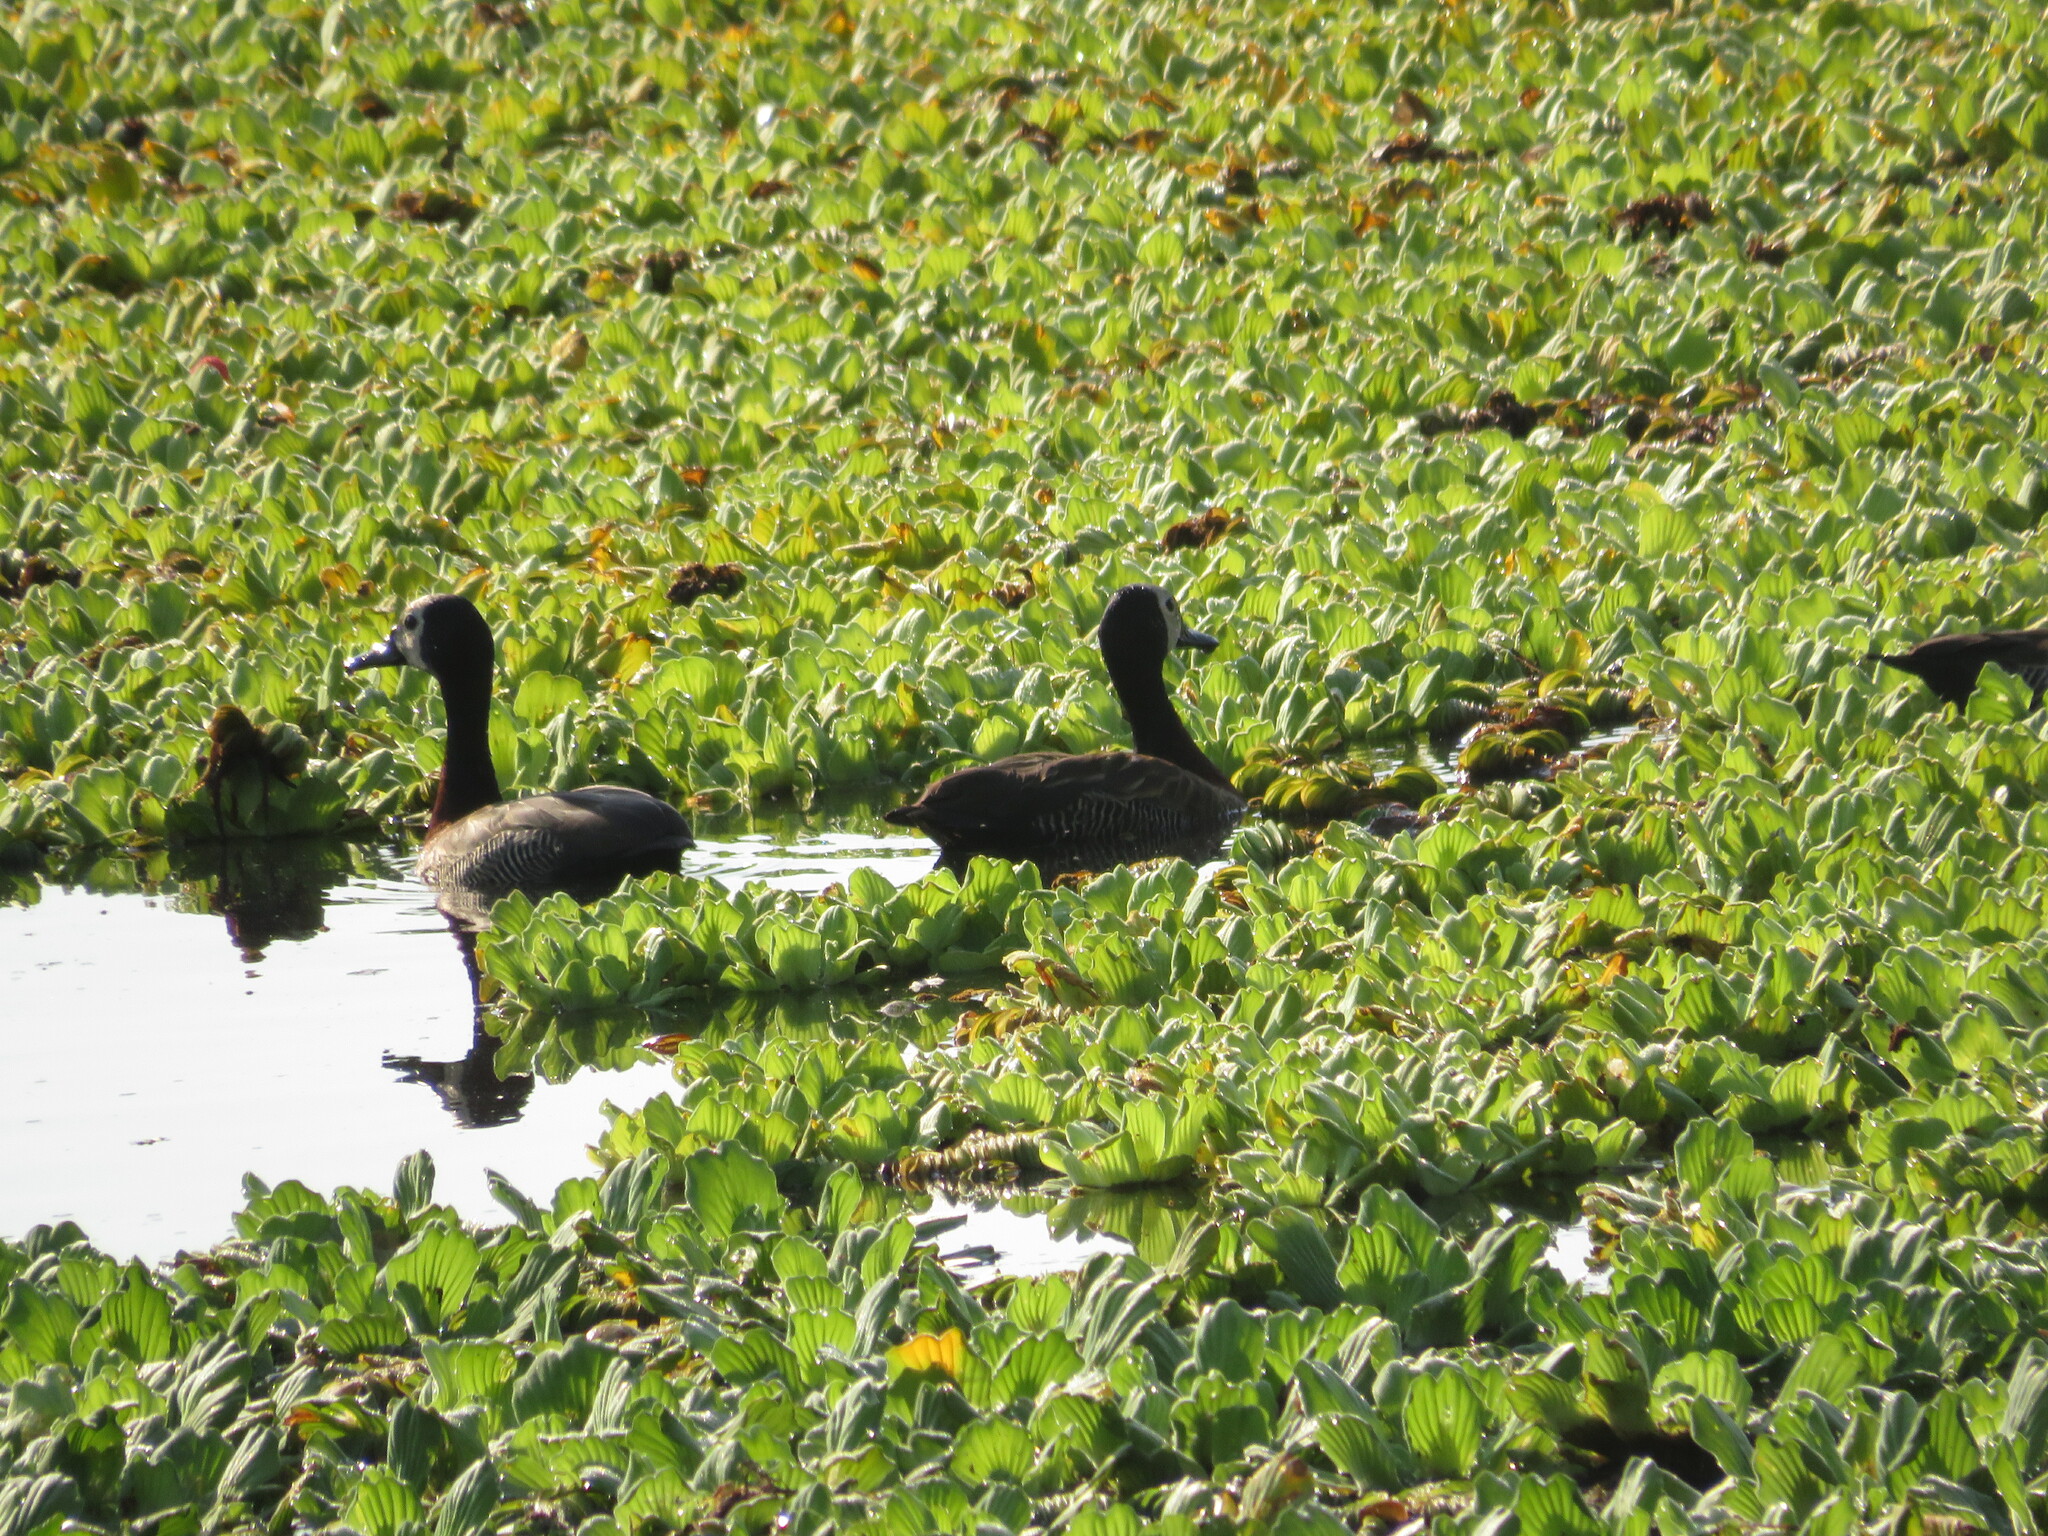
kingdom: Animalia
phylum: Chordata
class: Aves
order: Anseriformes
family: Anatidae
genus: Dendrocygna
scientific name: Dendrocygna viduata
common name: White-faced whistling duck
